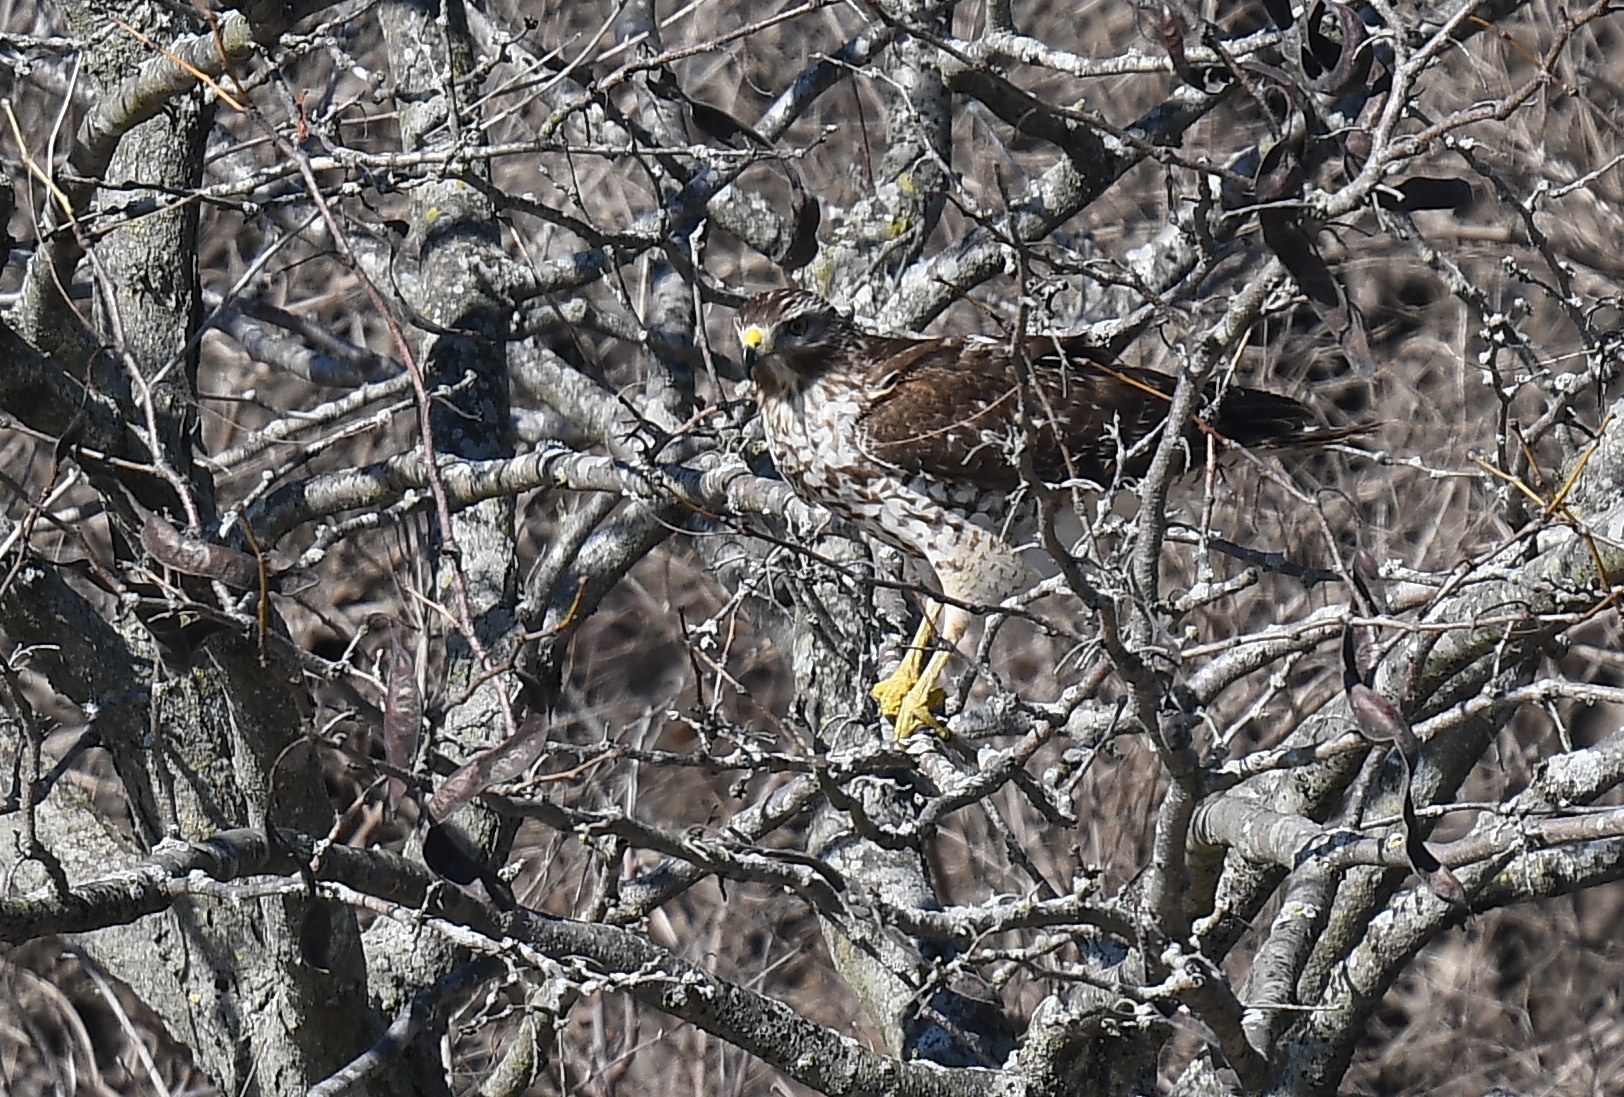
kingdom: Animalia
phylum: Chordata
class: Aves
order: Accipitriformes
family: Accipitridae
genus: Buteo
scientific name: Buteo lineatus
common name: Red-shouldered hawk
